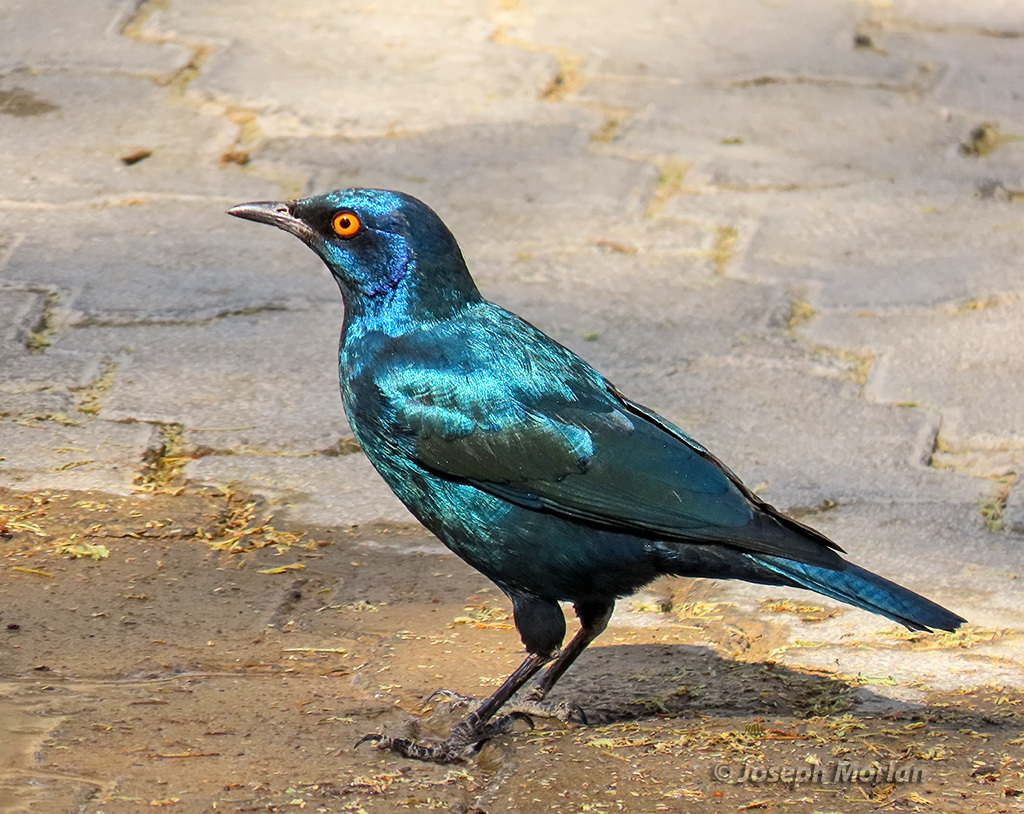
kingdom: Animalia
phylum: Chordata
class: Aves
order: Passeriformes
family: Sturnidae
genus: Lamprotornis
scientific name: Lamprotornis nitens
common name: Cape starling
